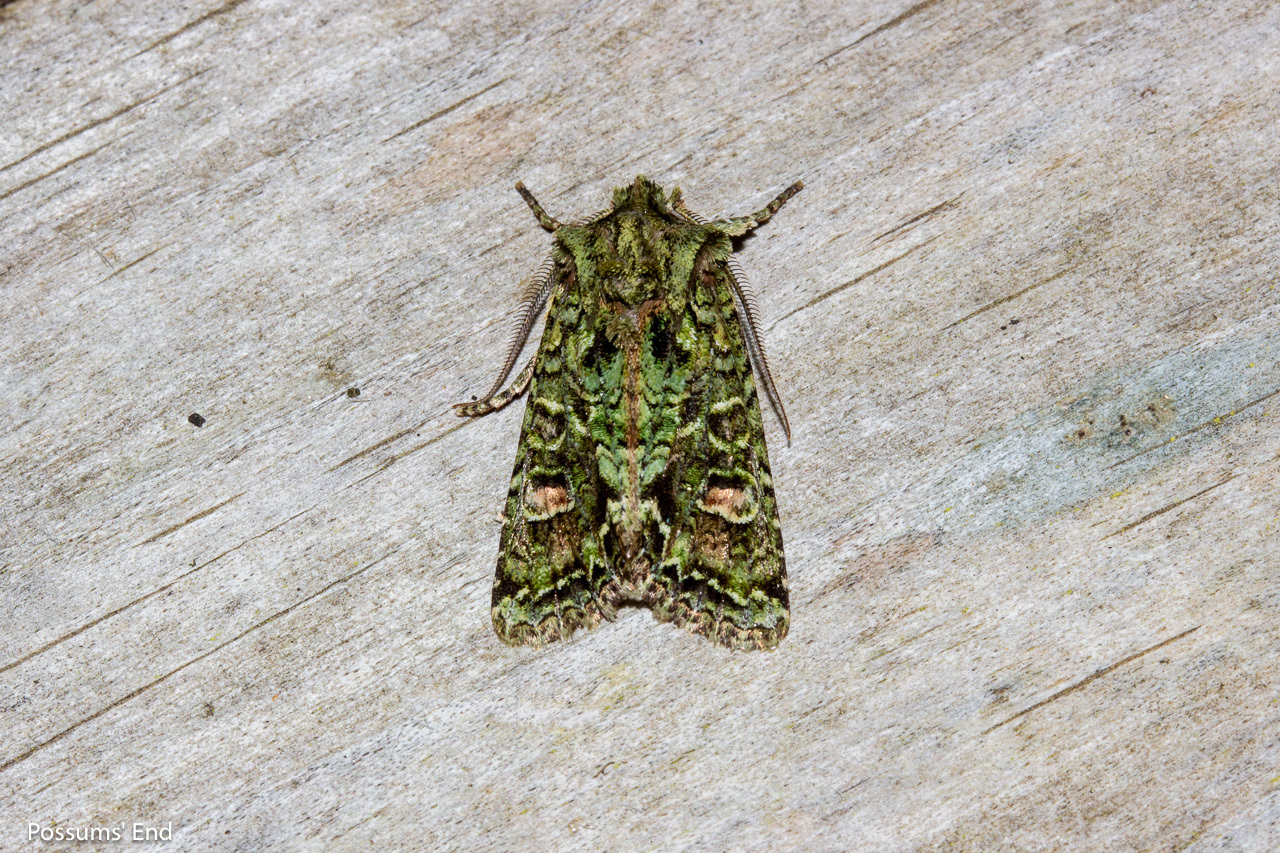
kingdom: Animalia
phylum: Arthropoda
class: Insecta
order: Lepidoptera
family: Noctuidae
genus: Ichneutica
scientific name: Ichneutica
